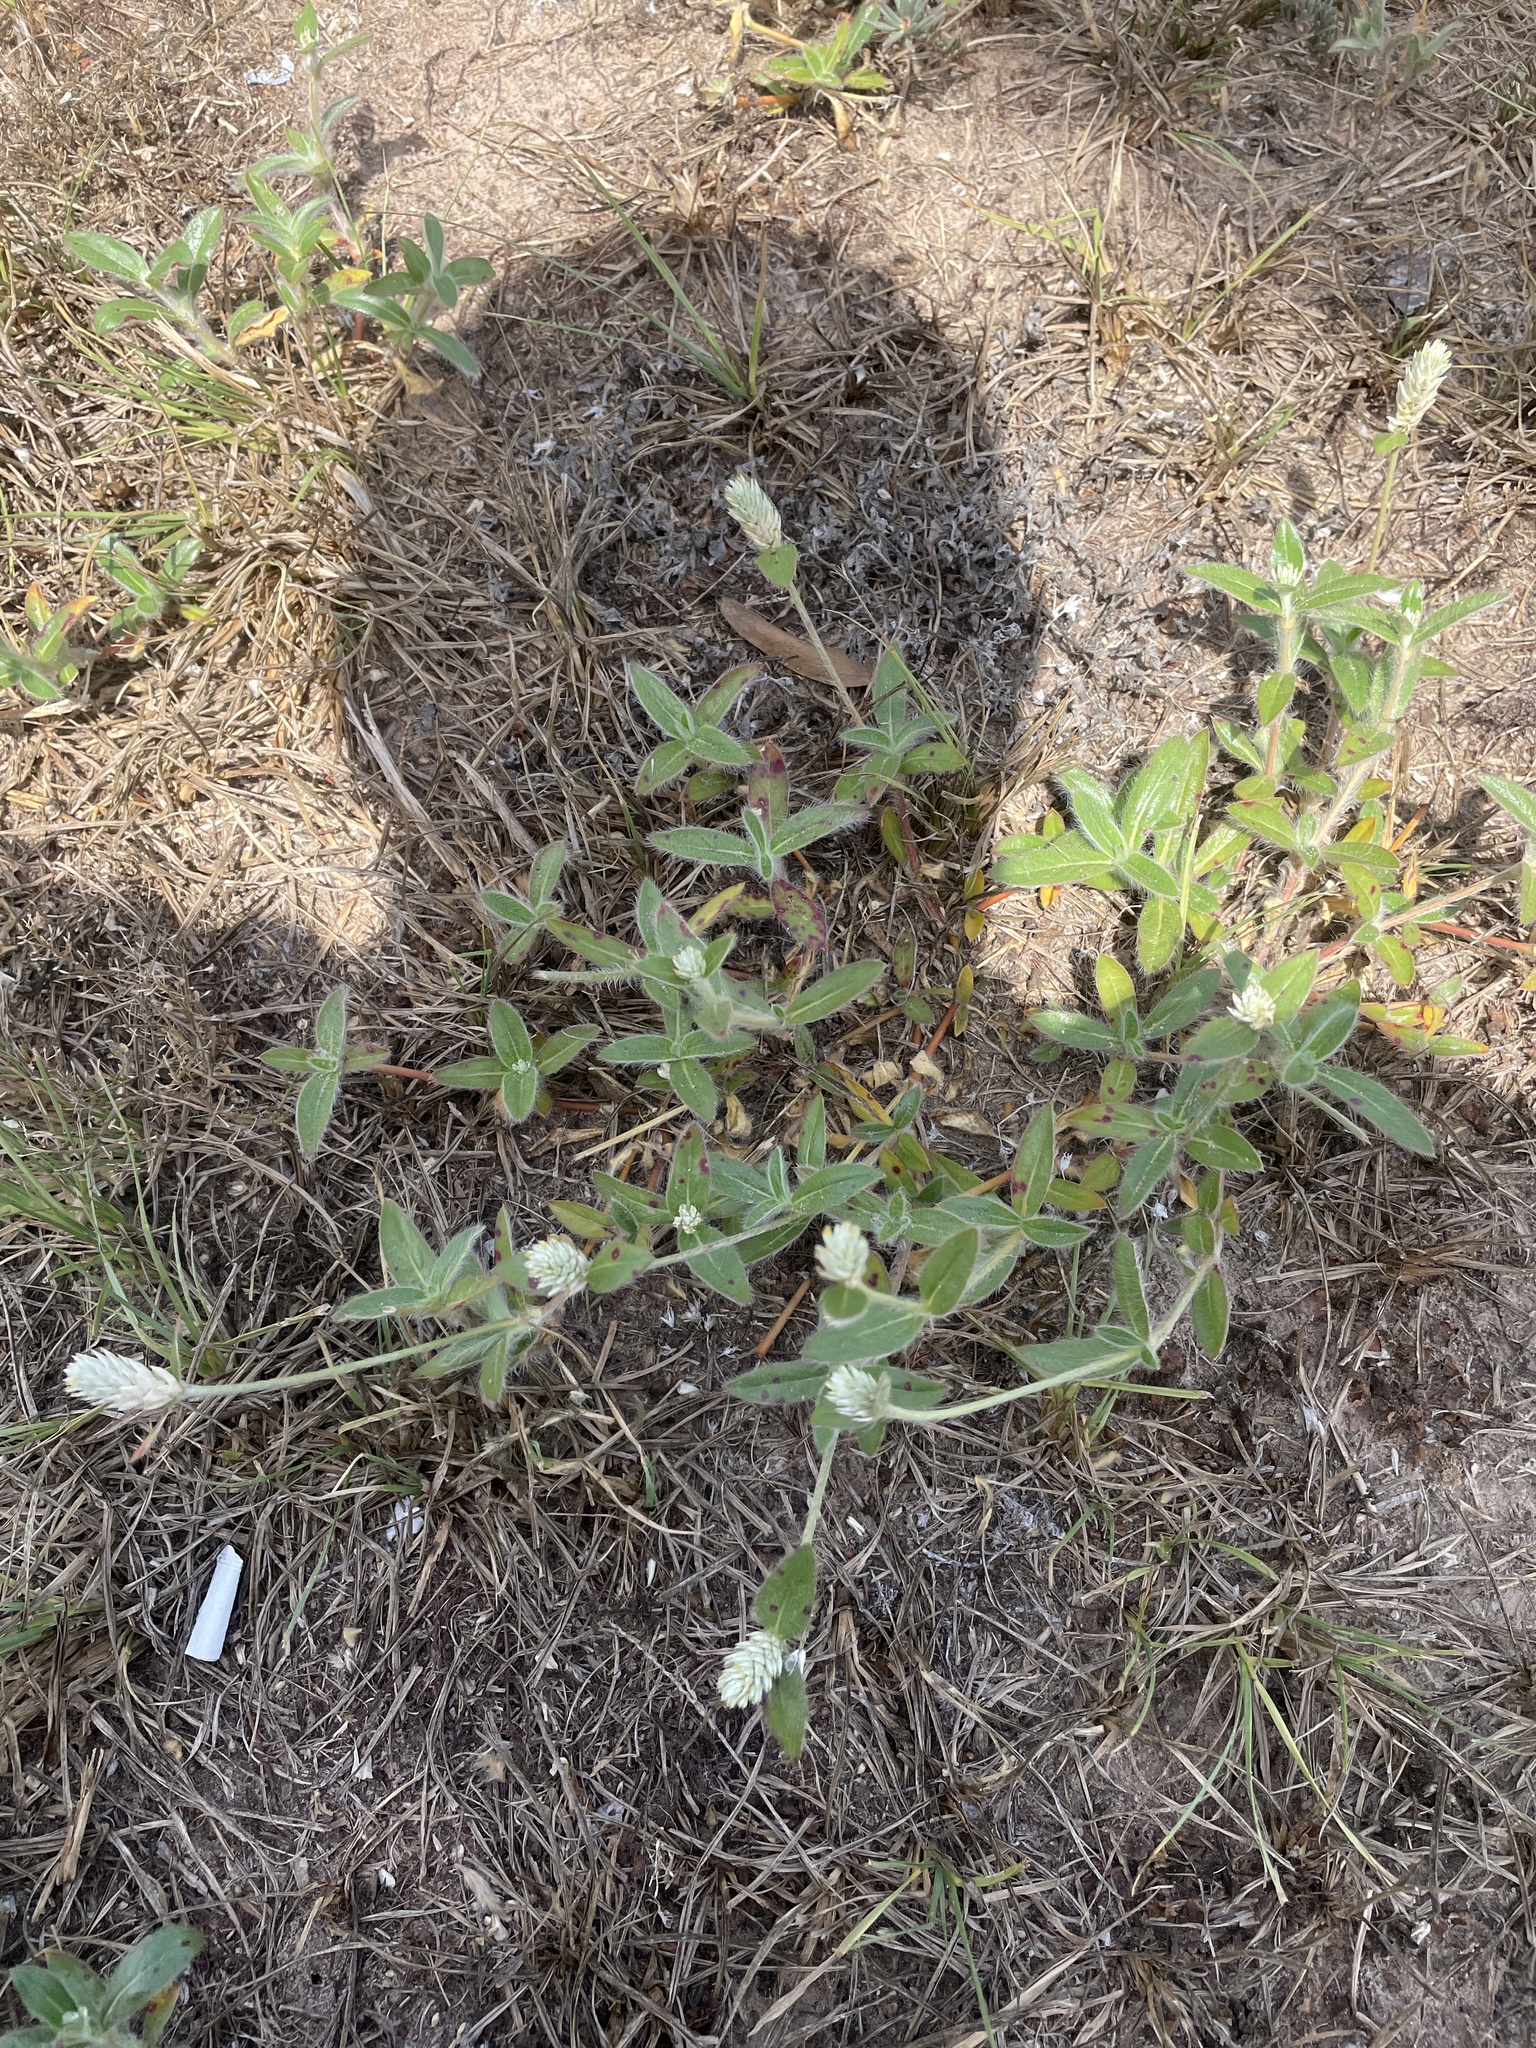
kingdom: Plantae
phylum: Tracheophyta
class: Magnoliopsida
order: Caryophyllales
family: Amaranthaceae
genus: Gomphrena
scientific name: Gomphrena serrata
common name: Arrasa con todo
